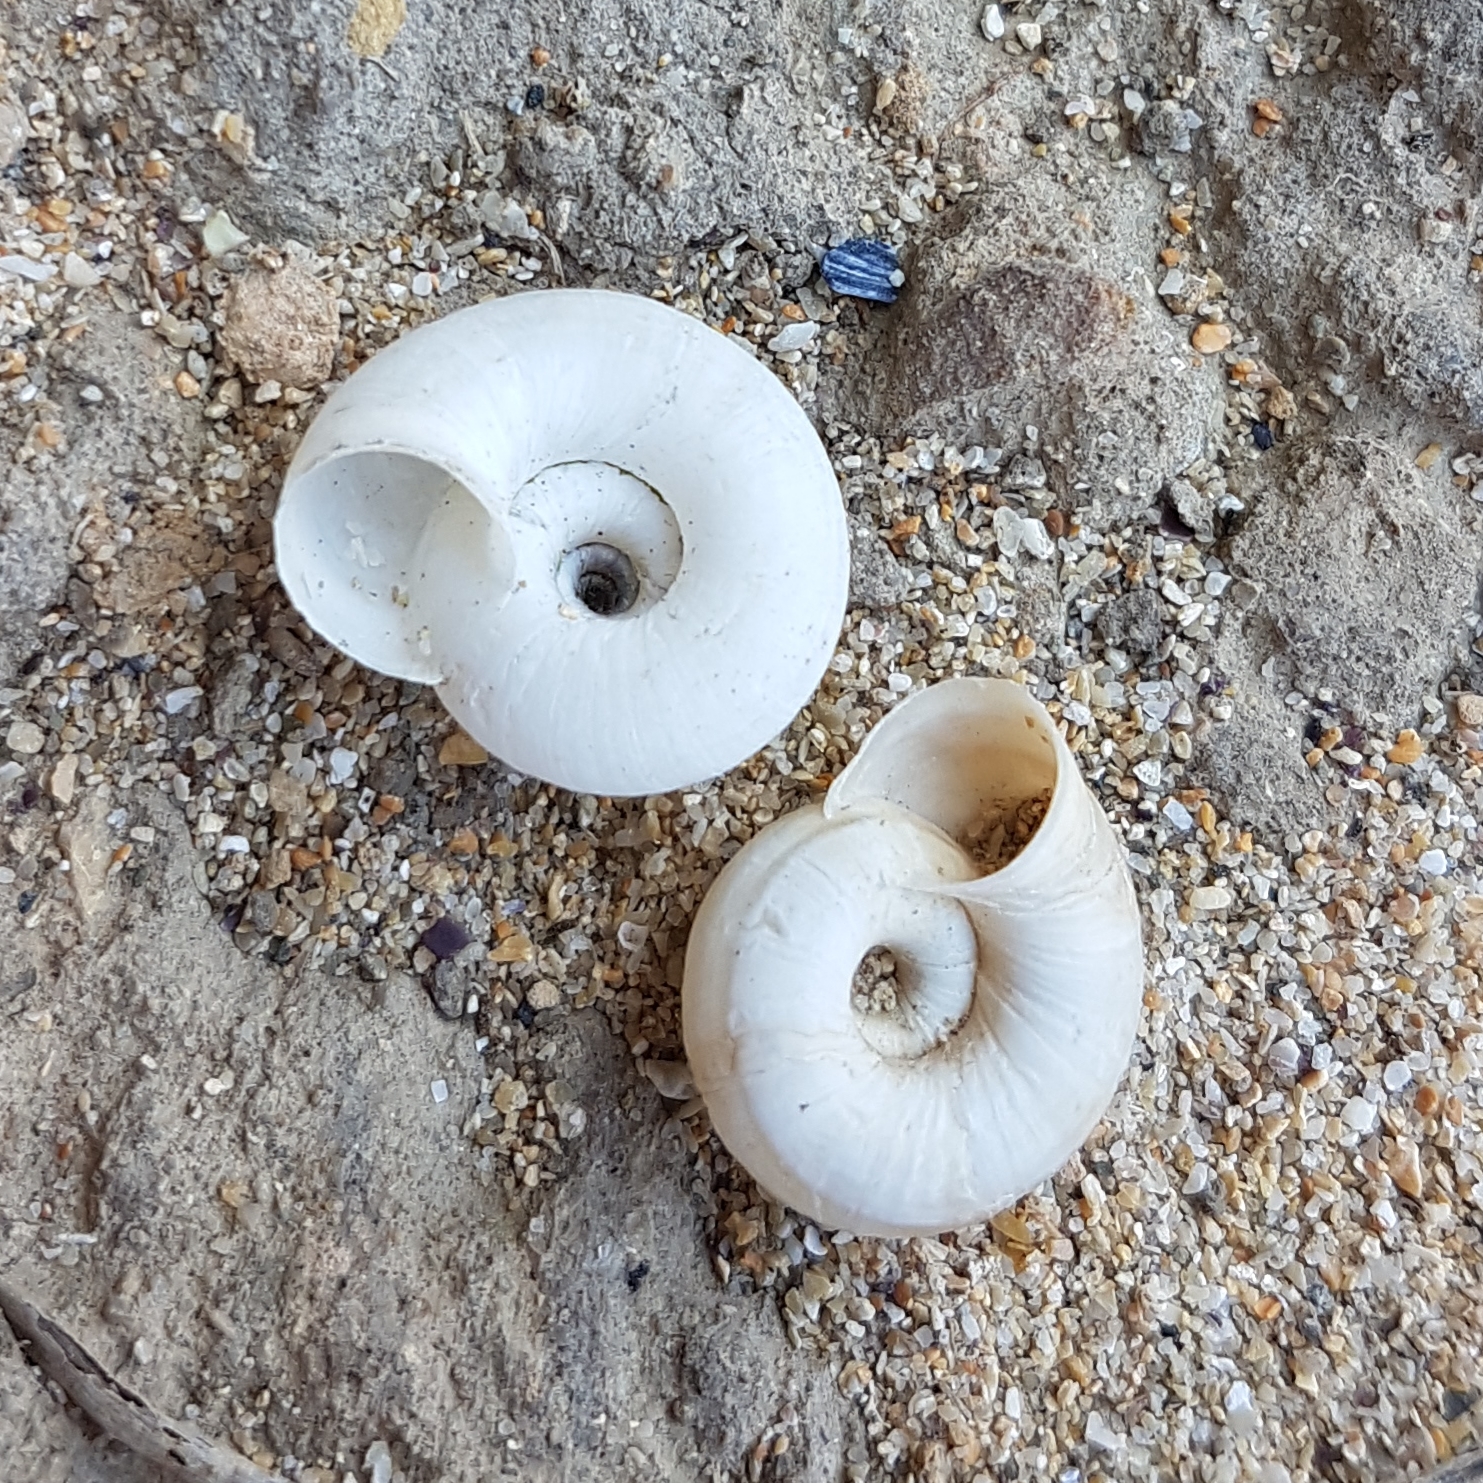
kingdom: Animalia
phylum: Mollusca
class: Gastropoda
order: Stylommatophora
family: Geomitridae
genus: Helicella
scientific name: Helicella itala
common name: Heath snail
